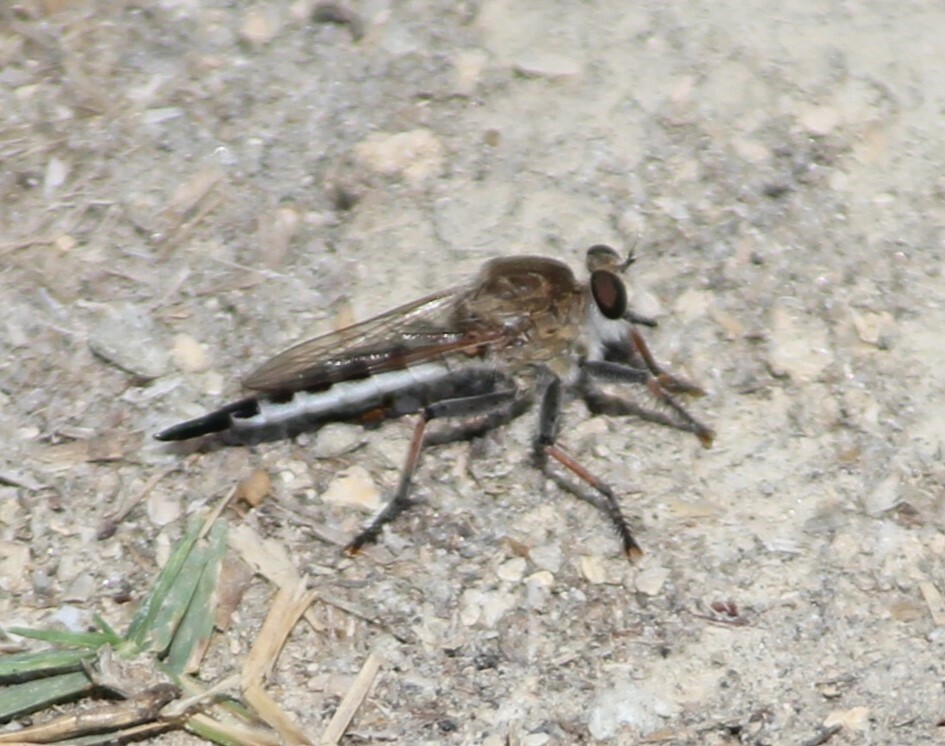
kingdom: Animalia
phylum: Arthropoda
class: Insecta
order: Diptera
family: Asilidae
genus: Efferia
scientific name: Efferia albibarbis
